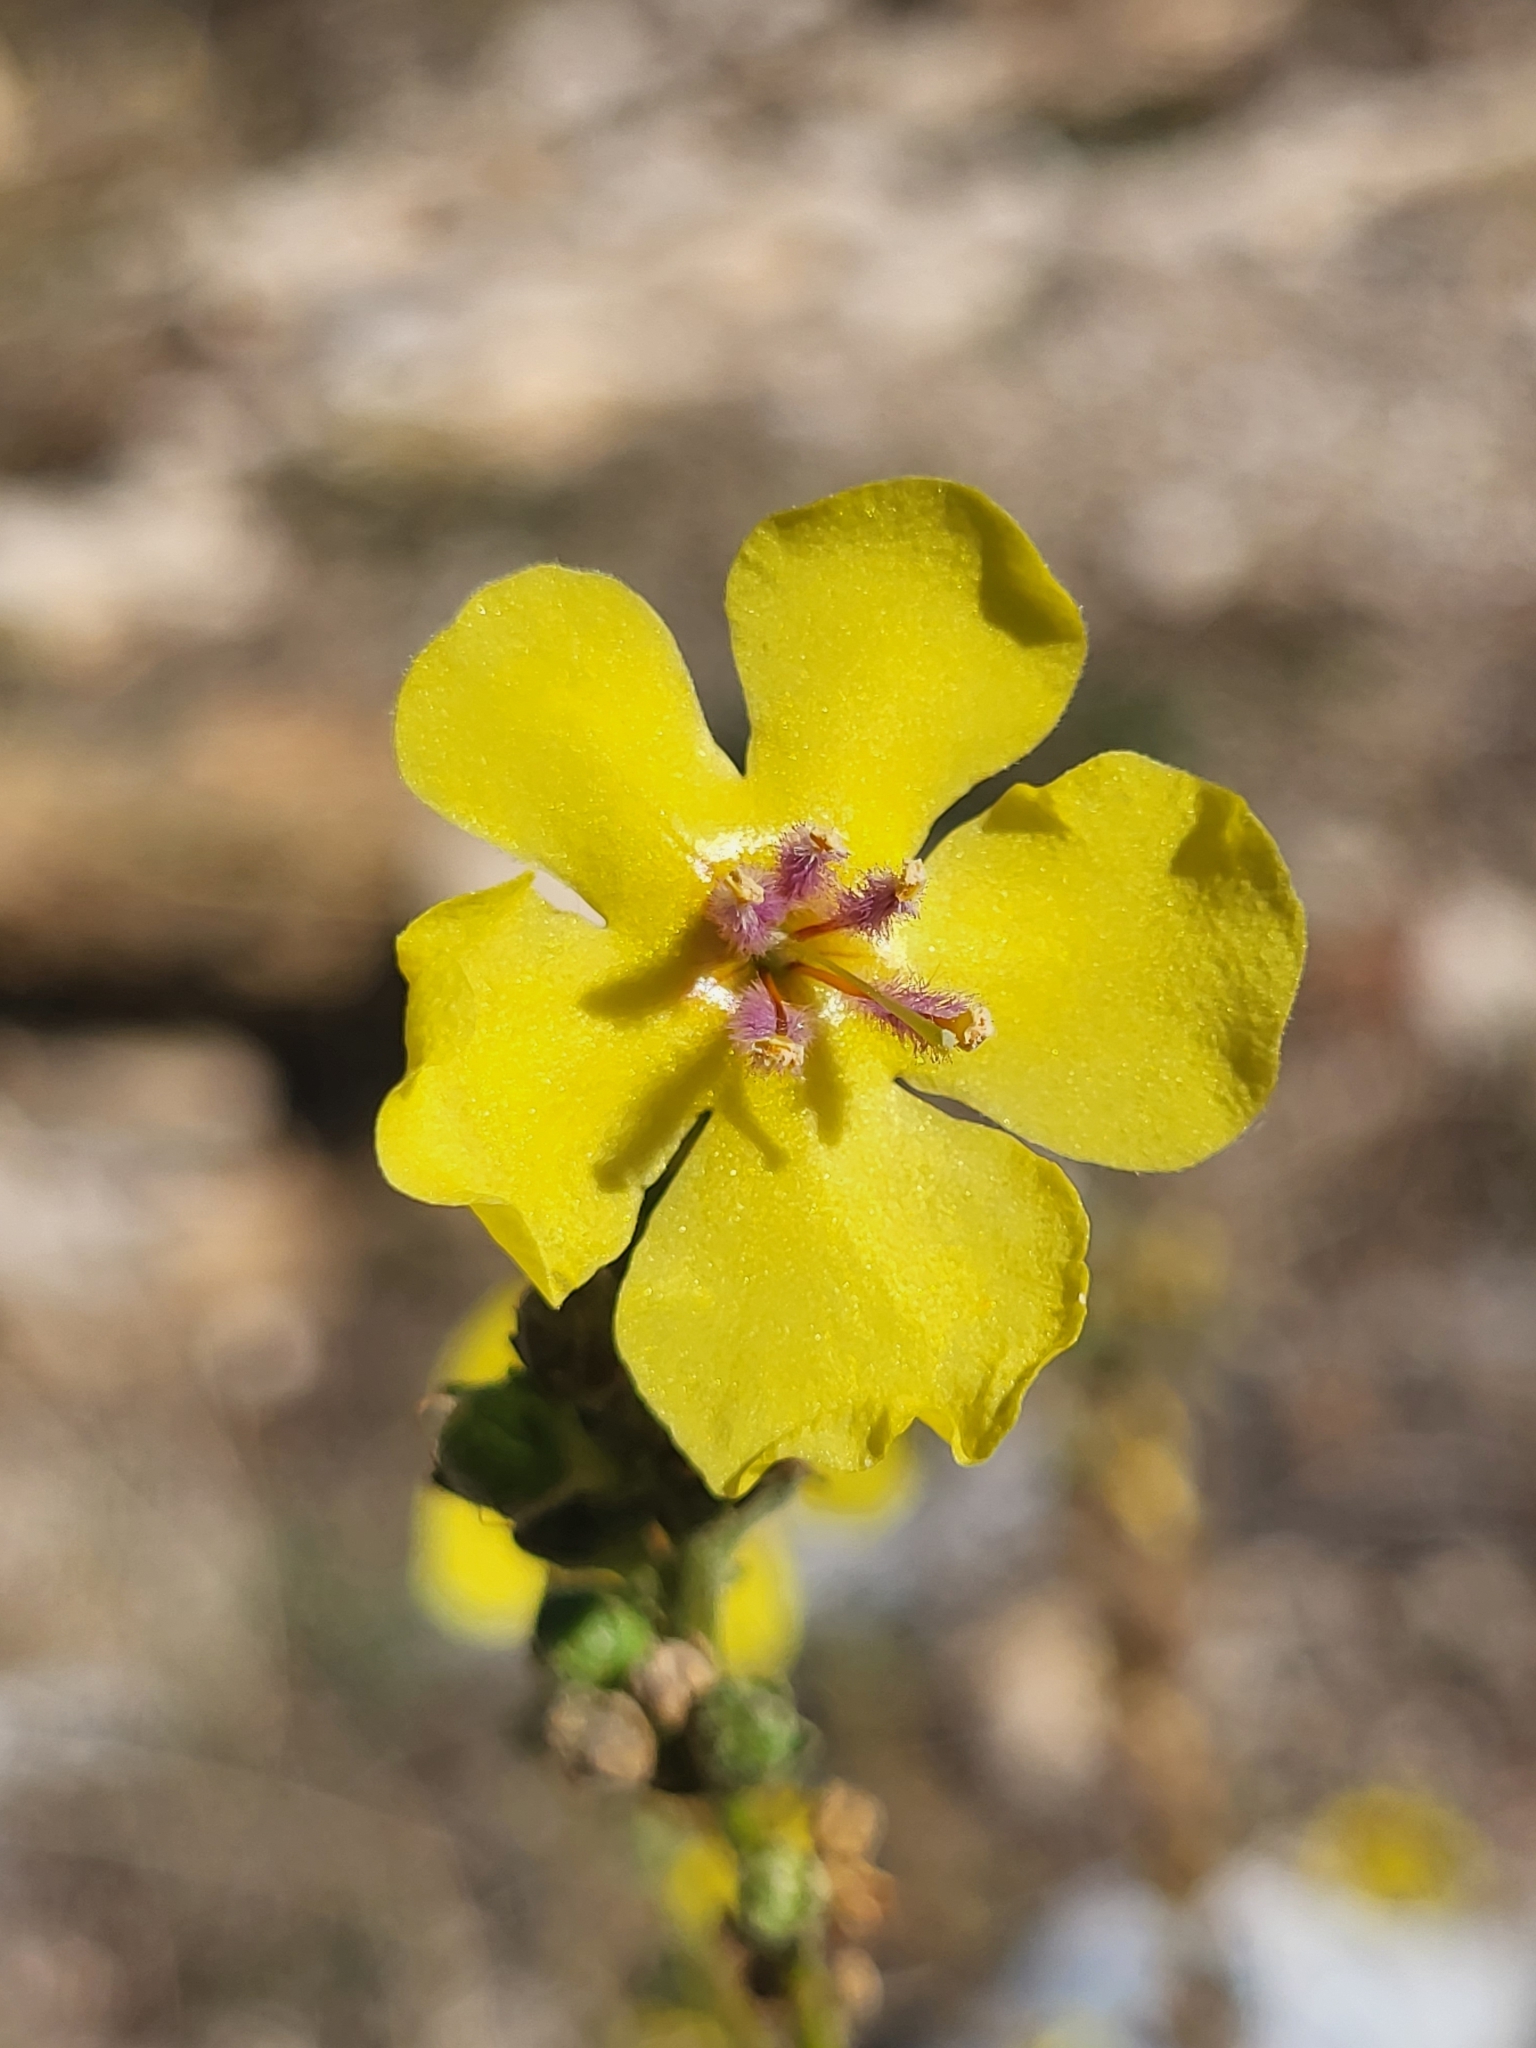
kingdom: Plantae
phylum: Tracheophyta
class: Magnoliopsida
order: Lamiales
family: Scrophulariaceae
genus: Verbascum
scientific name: Verbascum sinuatum
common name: Wavyleaf mullein
